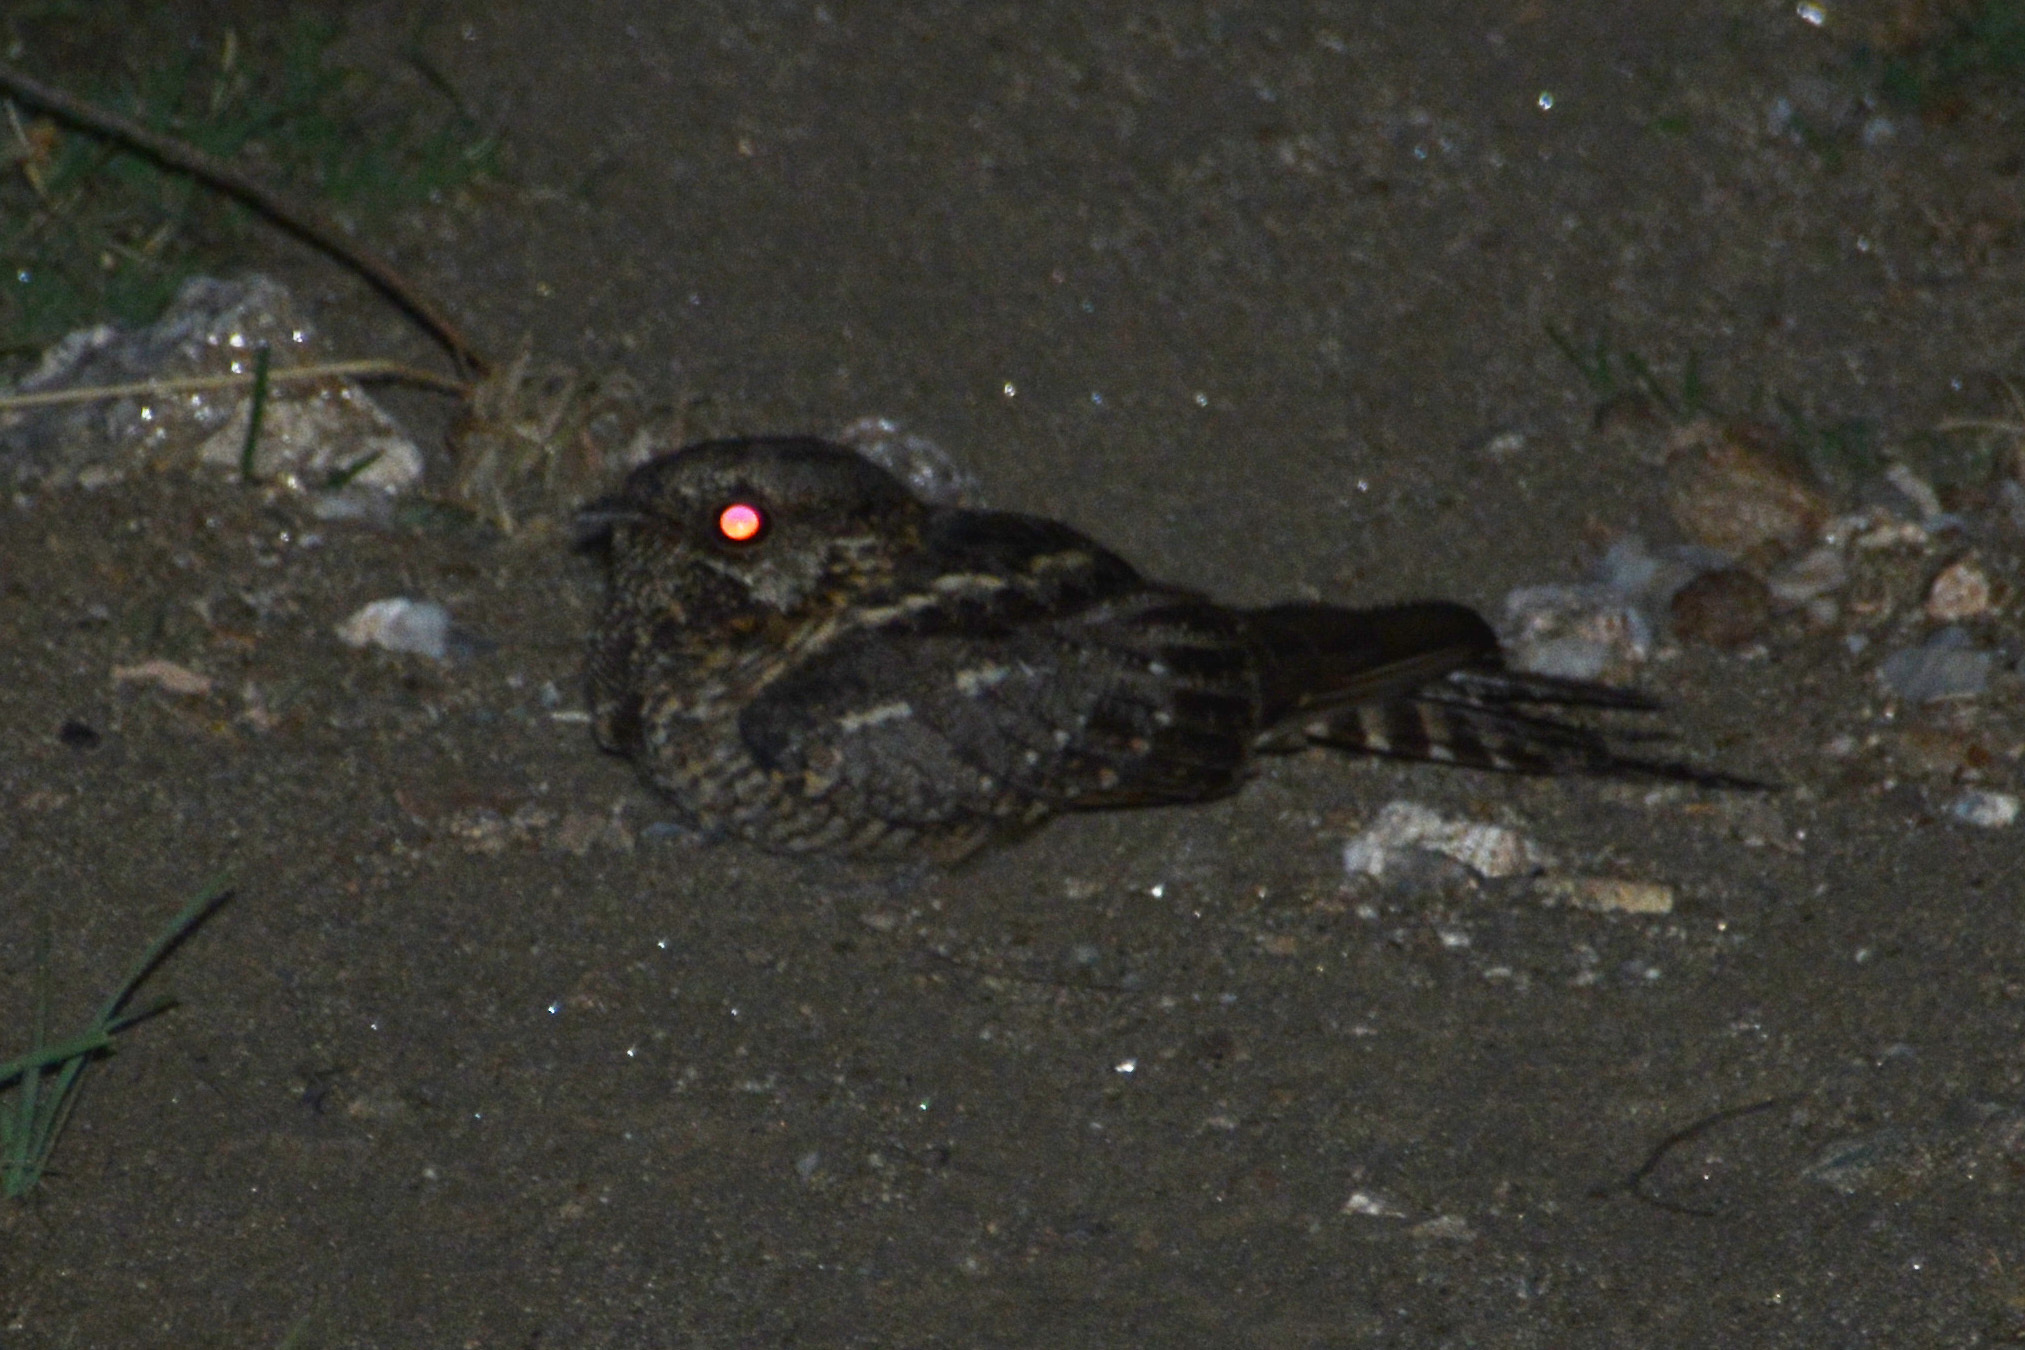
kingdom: Animalia
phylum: Chordata
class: Aves
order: Caprimulgiformes
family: Caprimulgidae
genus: Hydropsalis
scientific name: Hydropsalis torquata
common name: Scissor-tailed nightjar
